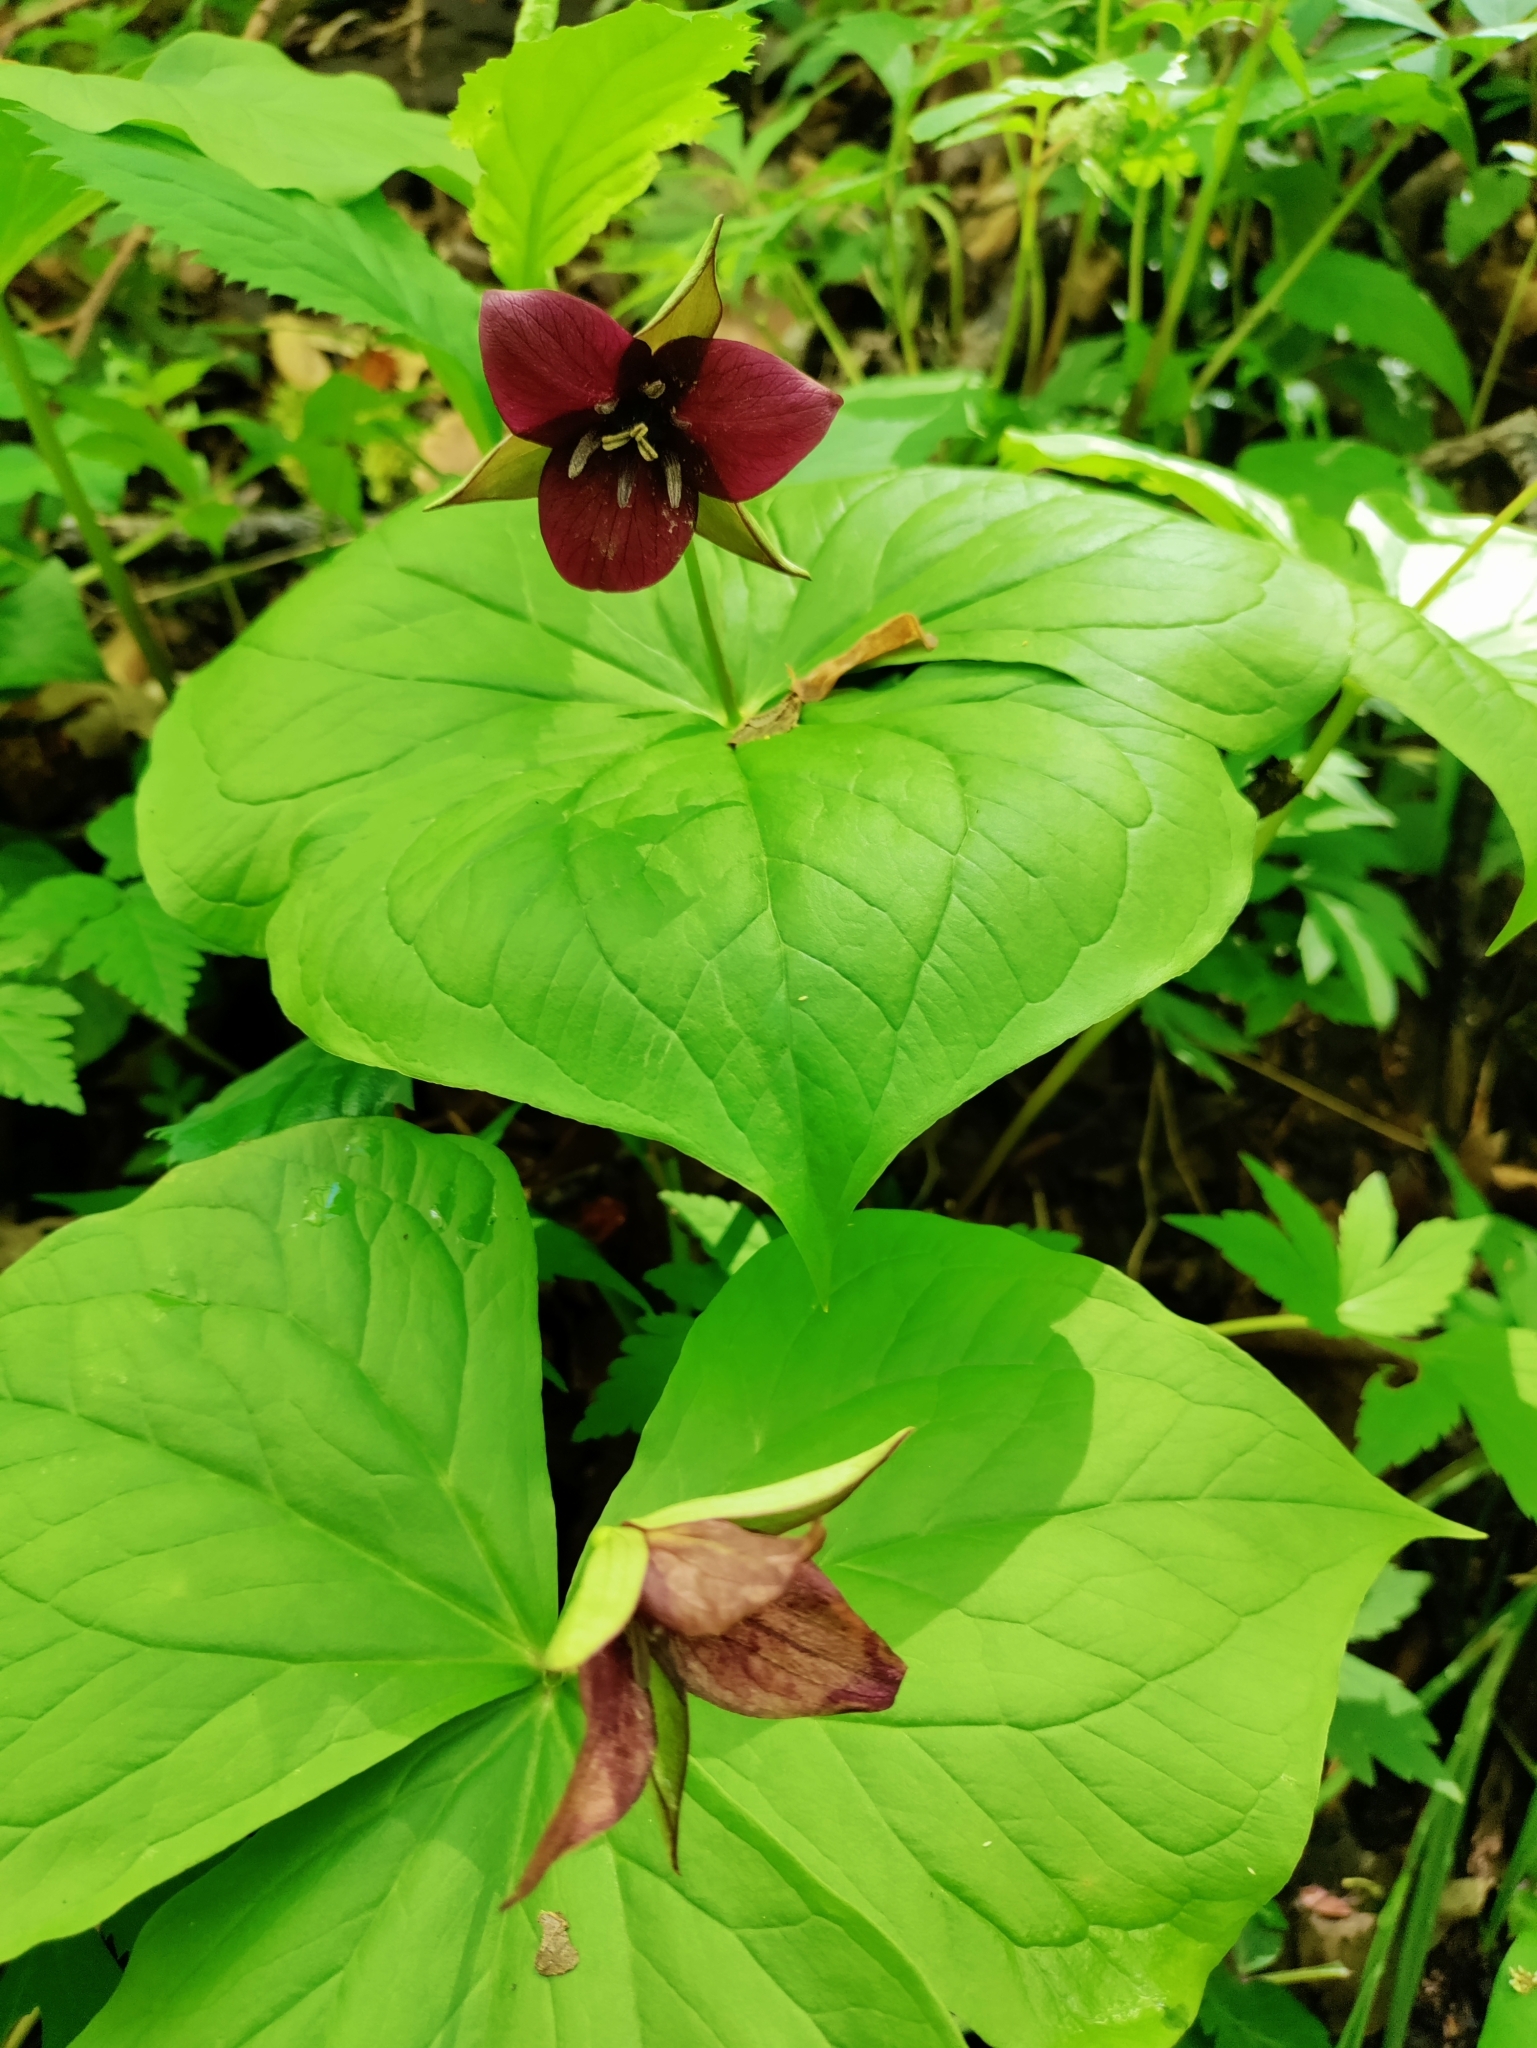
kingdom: Plantae
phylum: Tracheophyta
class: Liliopsida
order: Liliales
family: Melanthiaceae
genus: Trillium
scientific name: Trillium sulcatum
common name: Barksdale trillium
